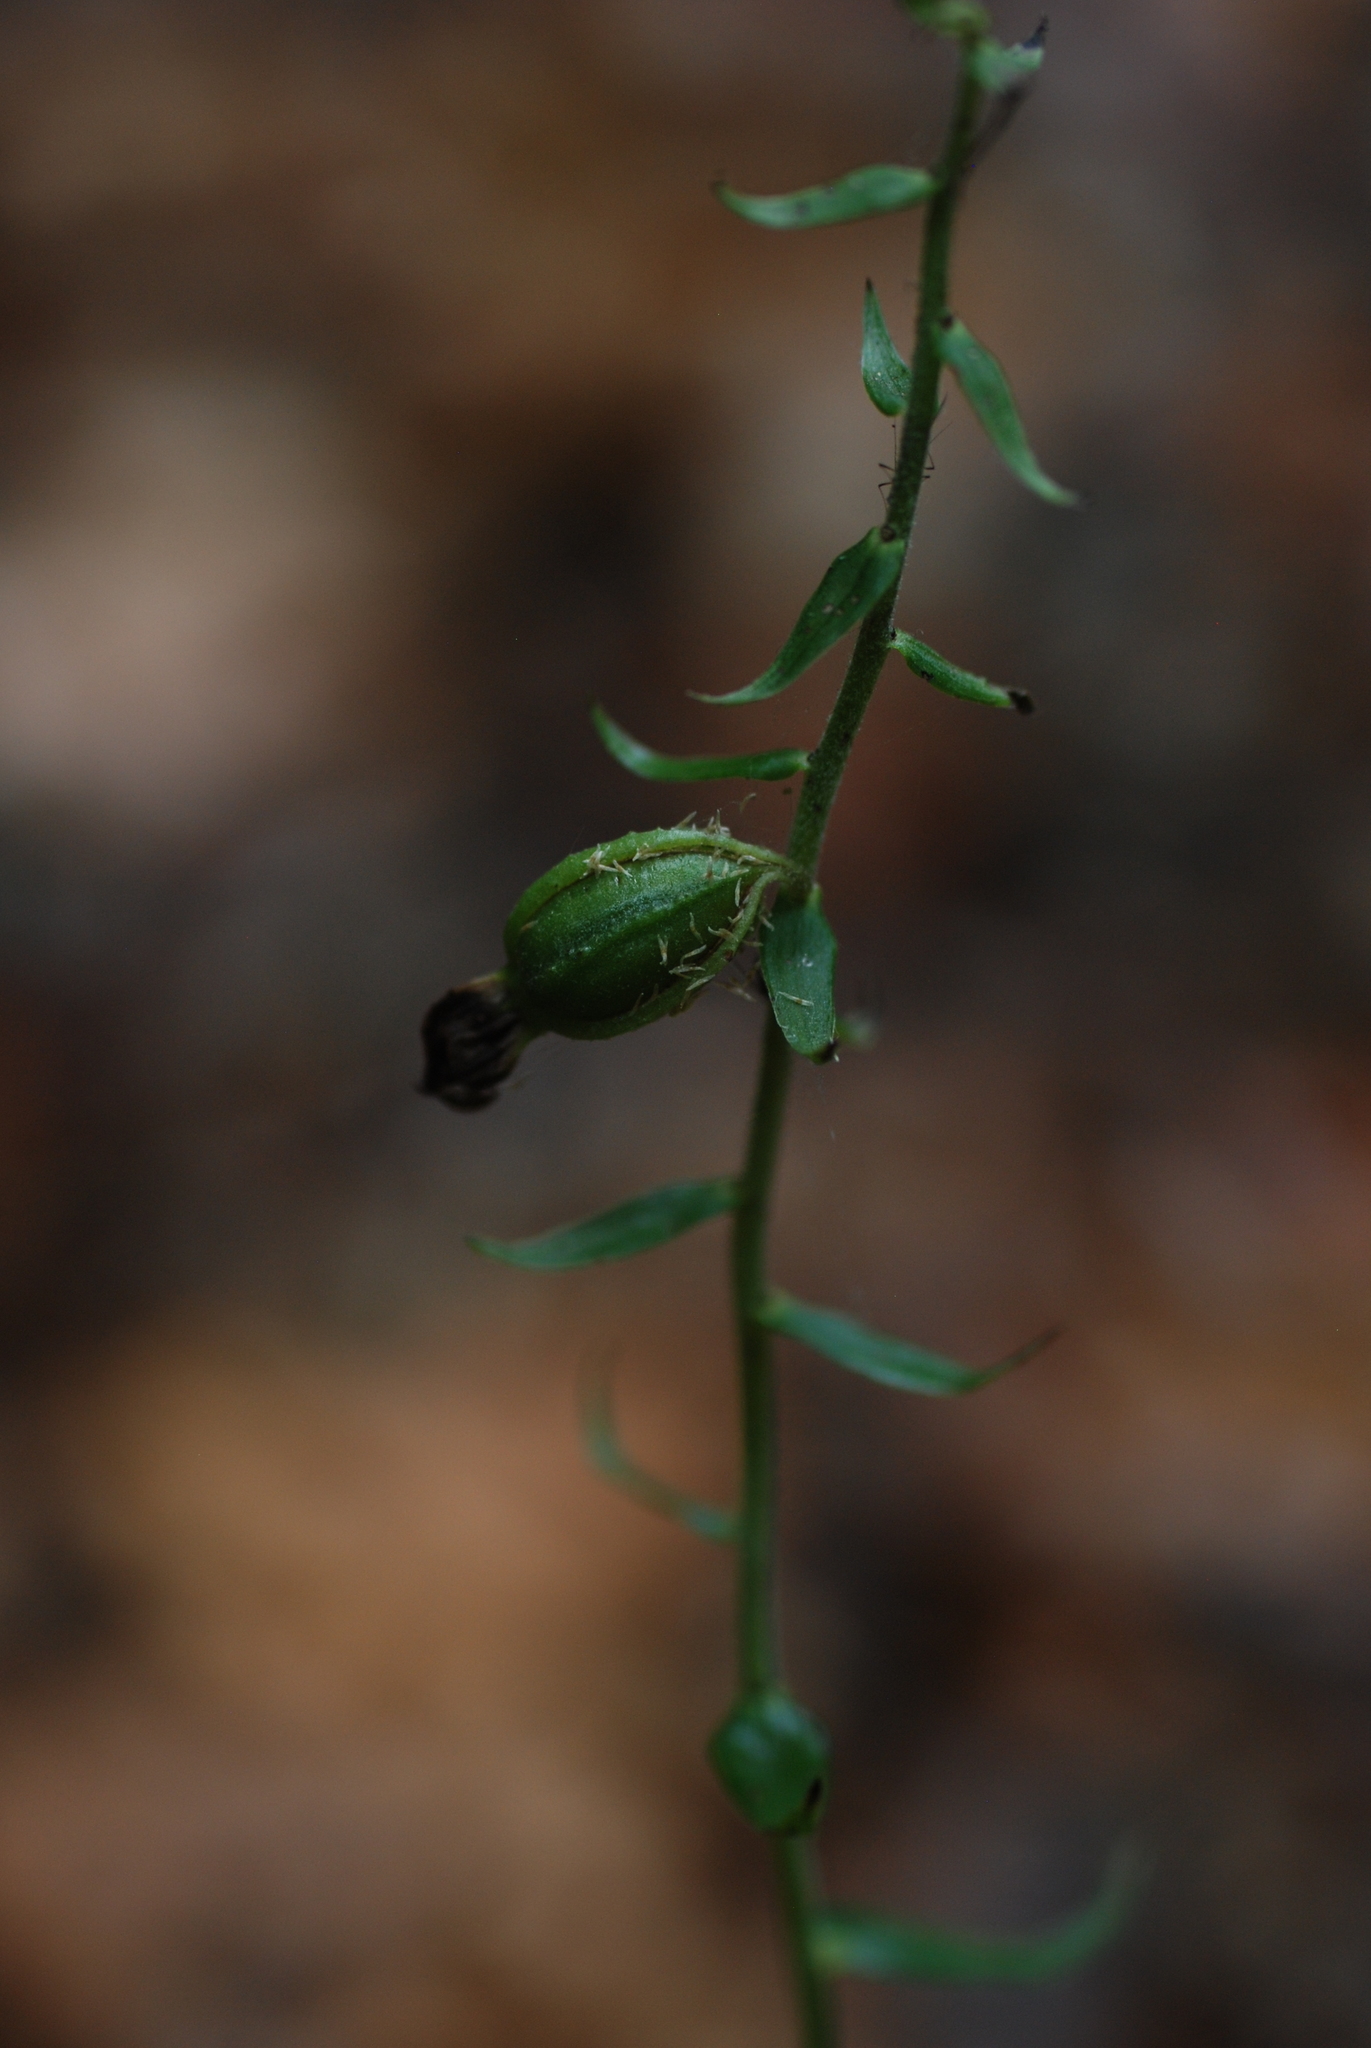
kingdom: Plantae
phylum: Tracheophyta
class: Liliopsida
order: Asparagales
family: Orchidaceae
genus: Epipactis
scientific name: Epipactis helleborine
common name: Broad-leaved helleborine
